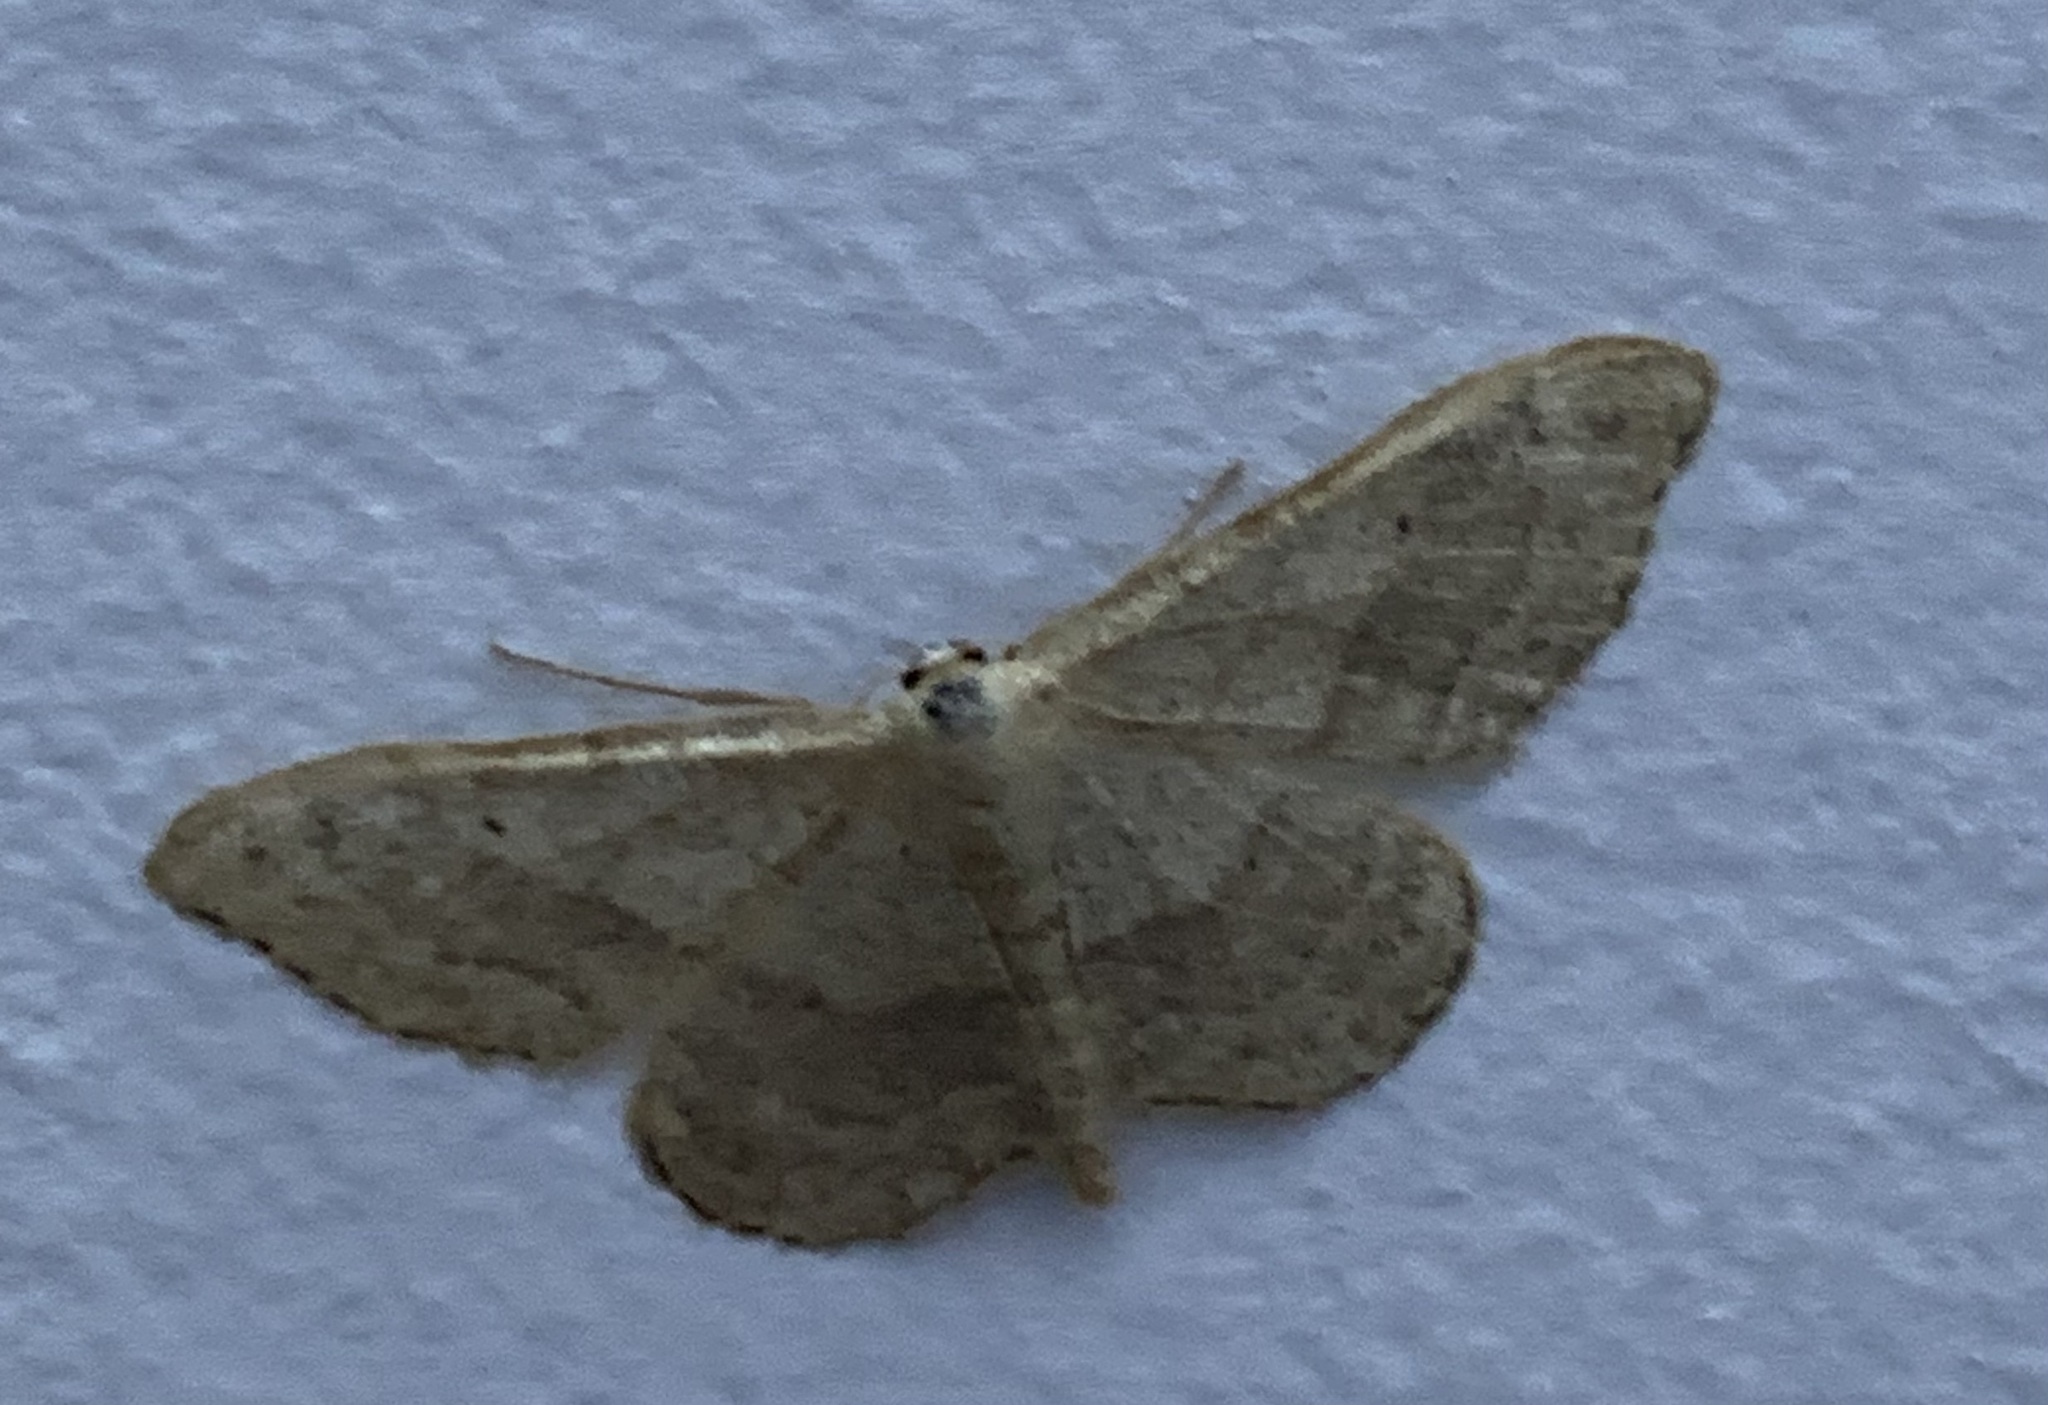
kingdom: Animalia
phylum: Arthropoda
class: Insecta
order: Lepidoptera
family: Geometridae
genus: Idaea
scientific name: Idaea aversata
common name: Riband wave
